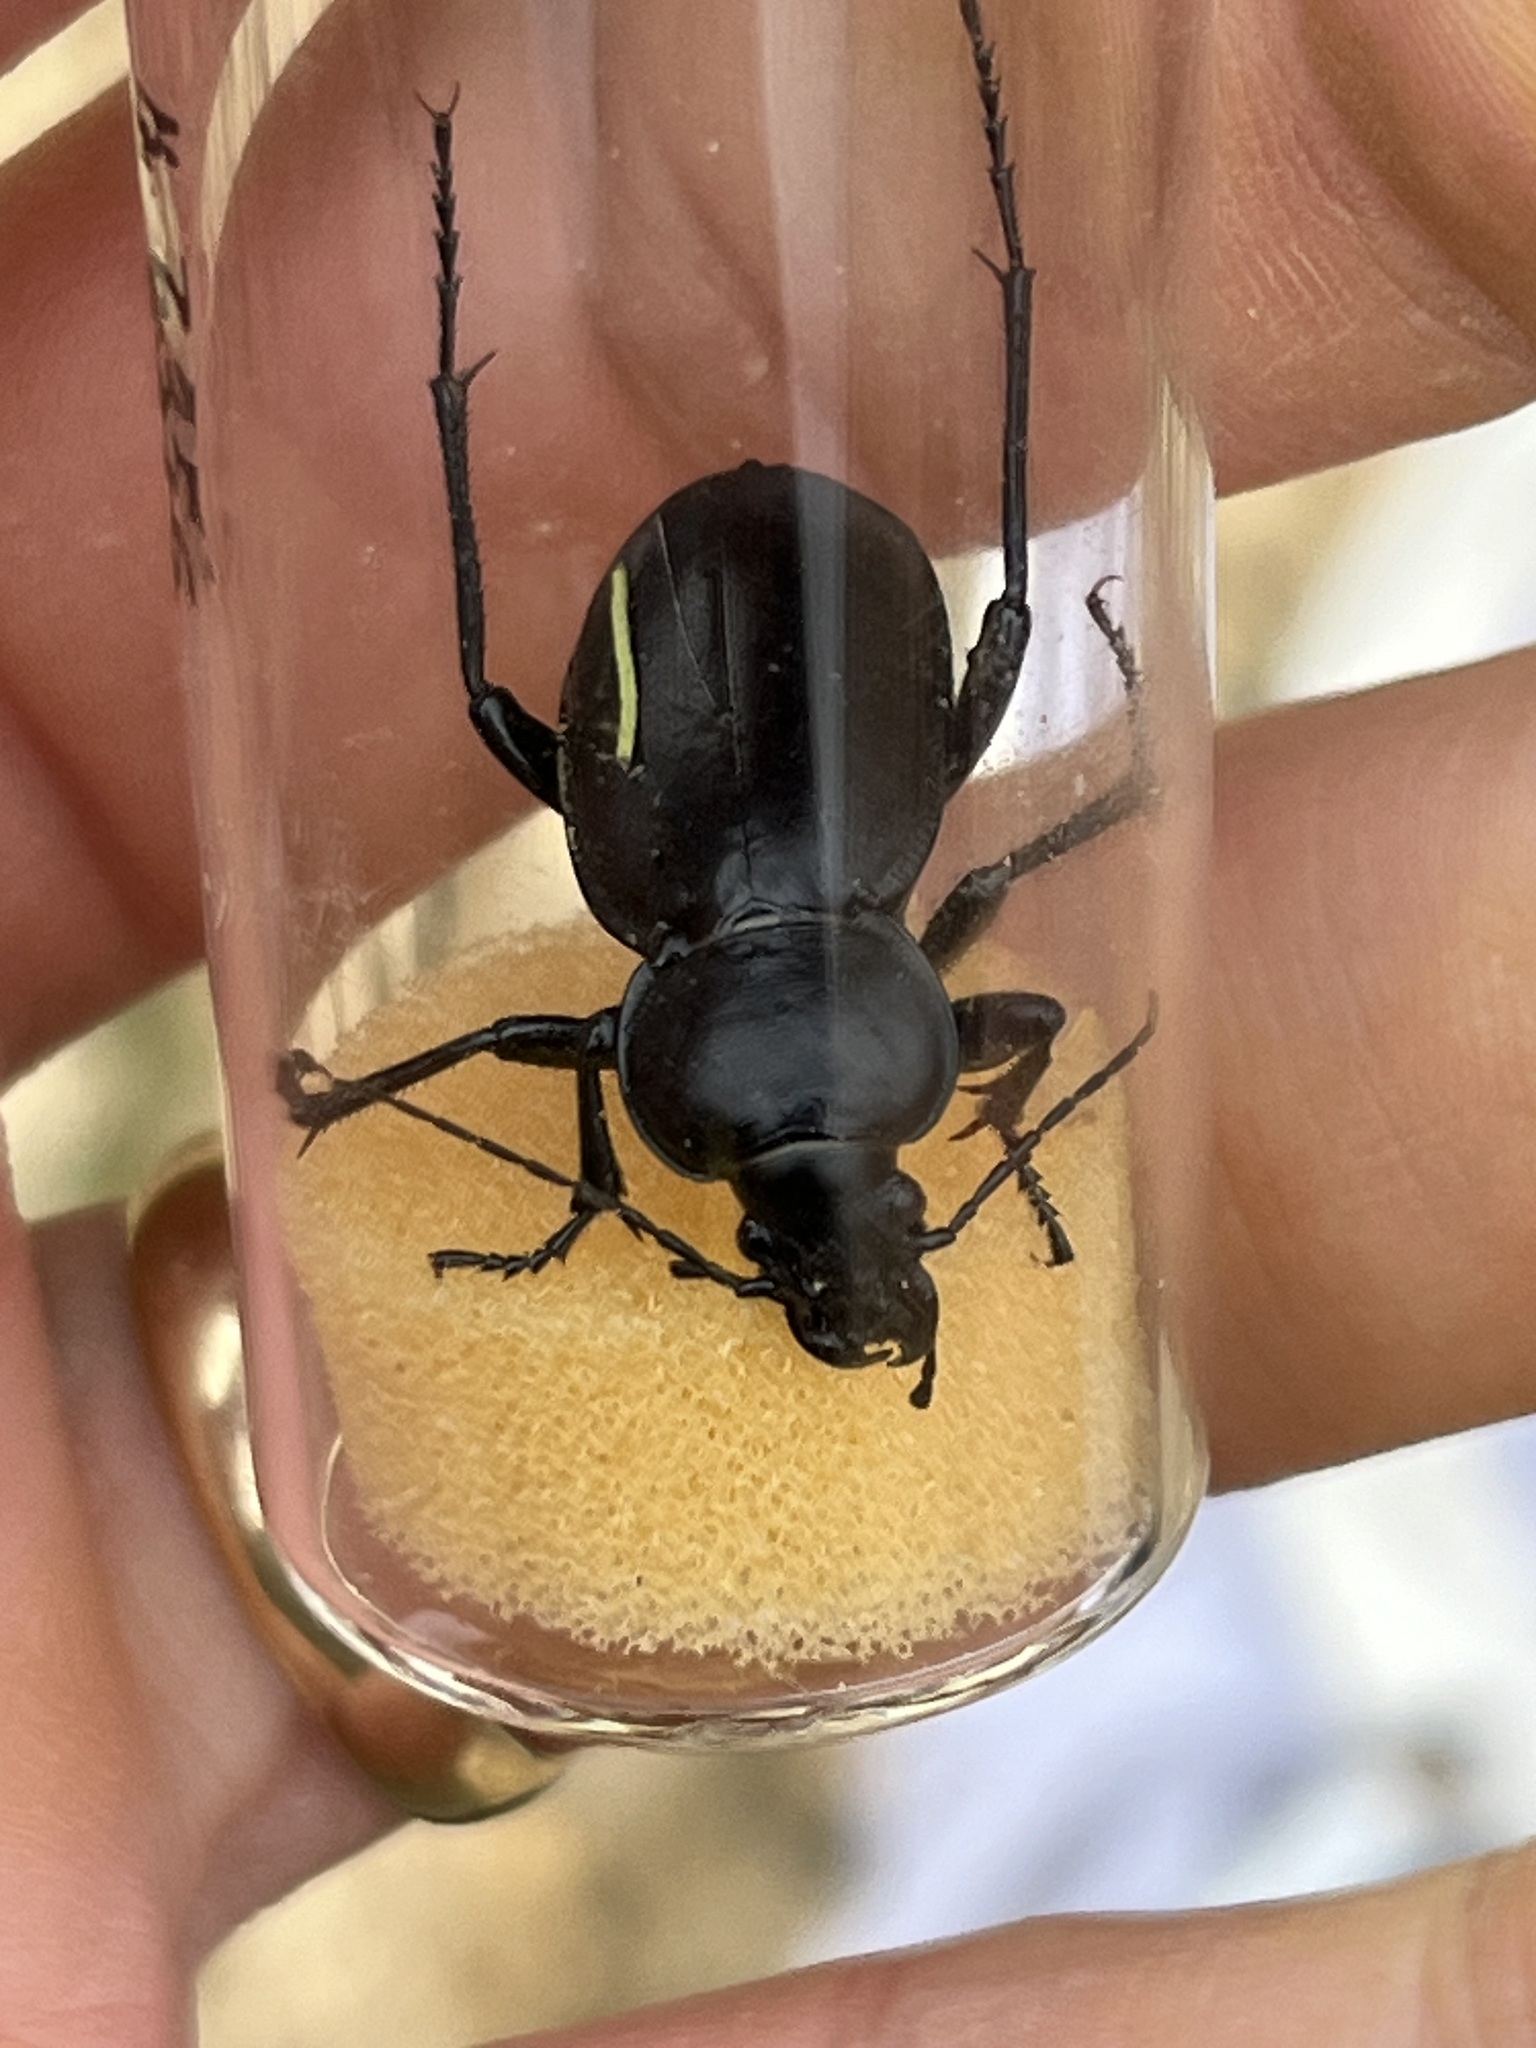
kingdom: Animalia
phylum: Arthropoda
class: Insecta
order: Coleoptera
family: Carabidae
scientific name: Carabidae
